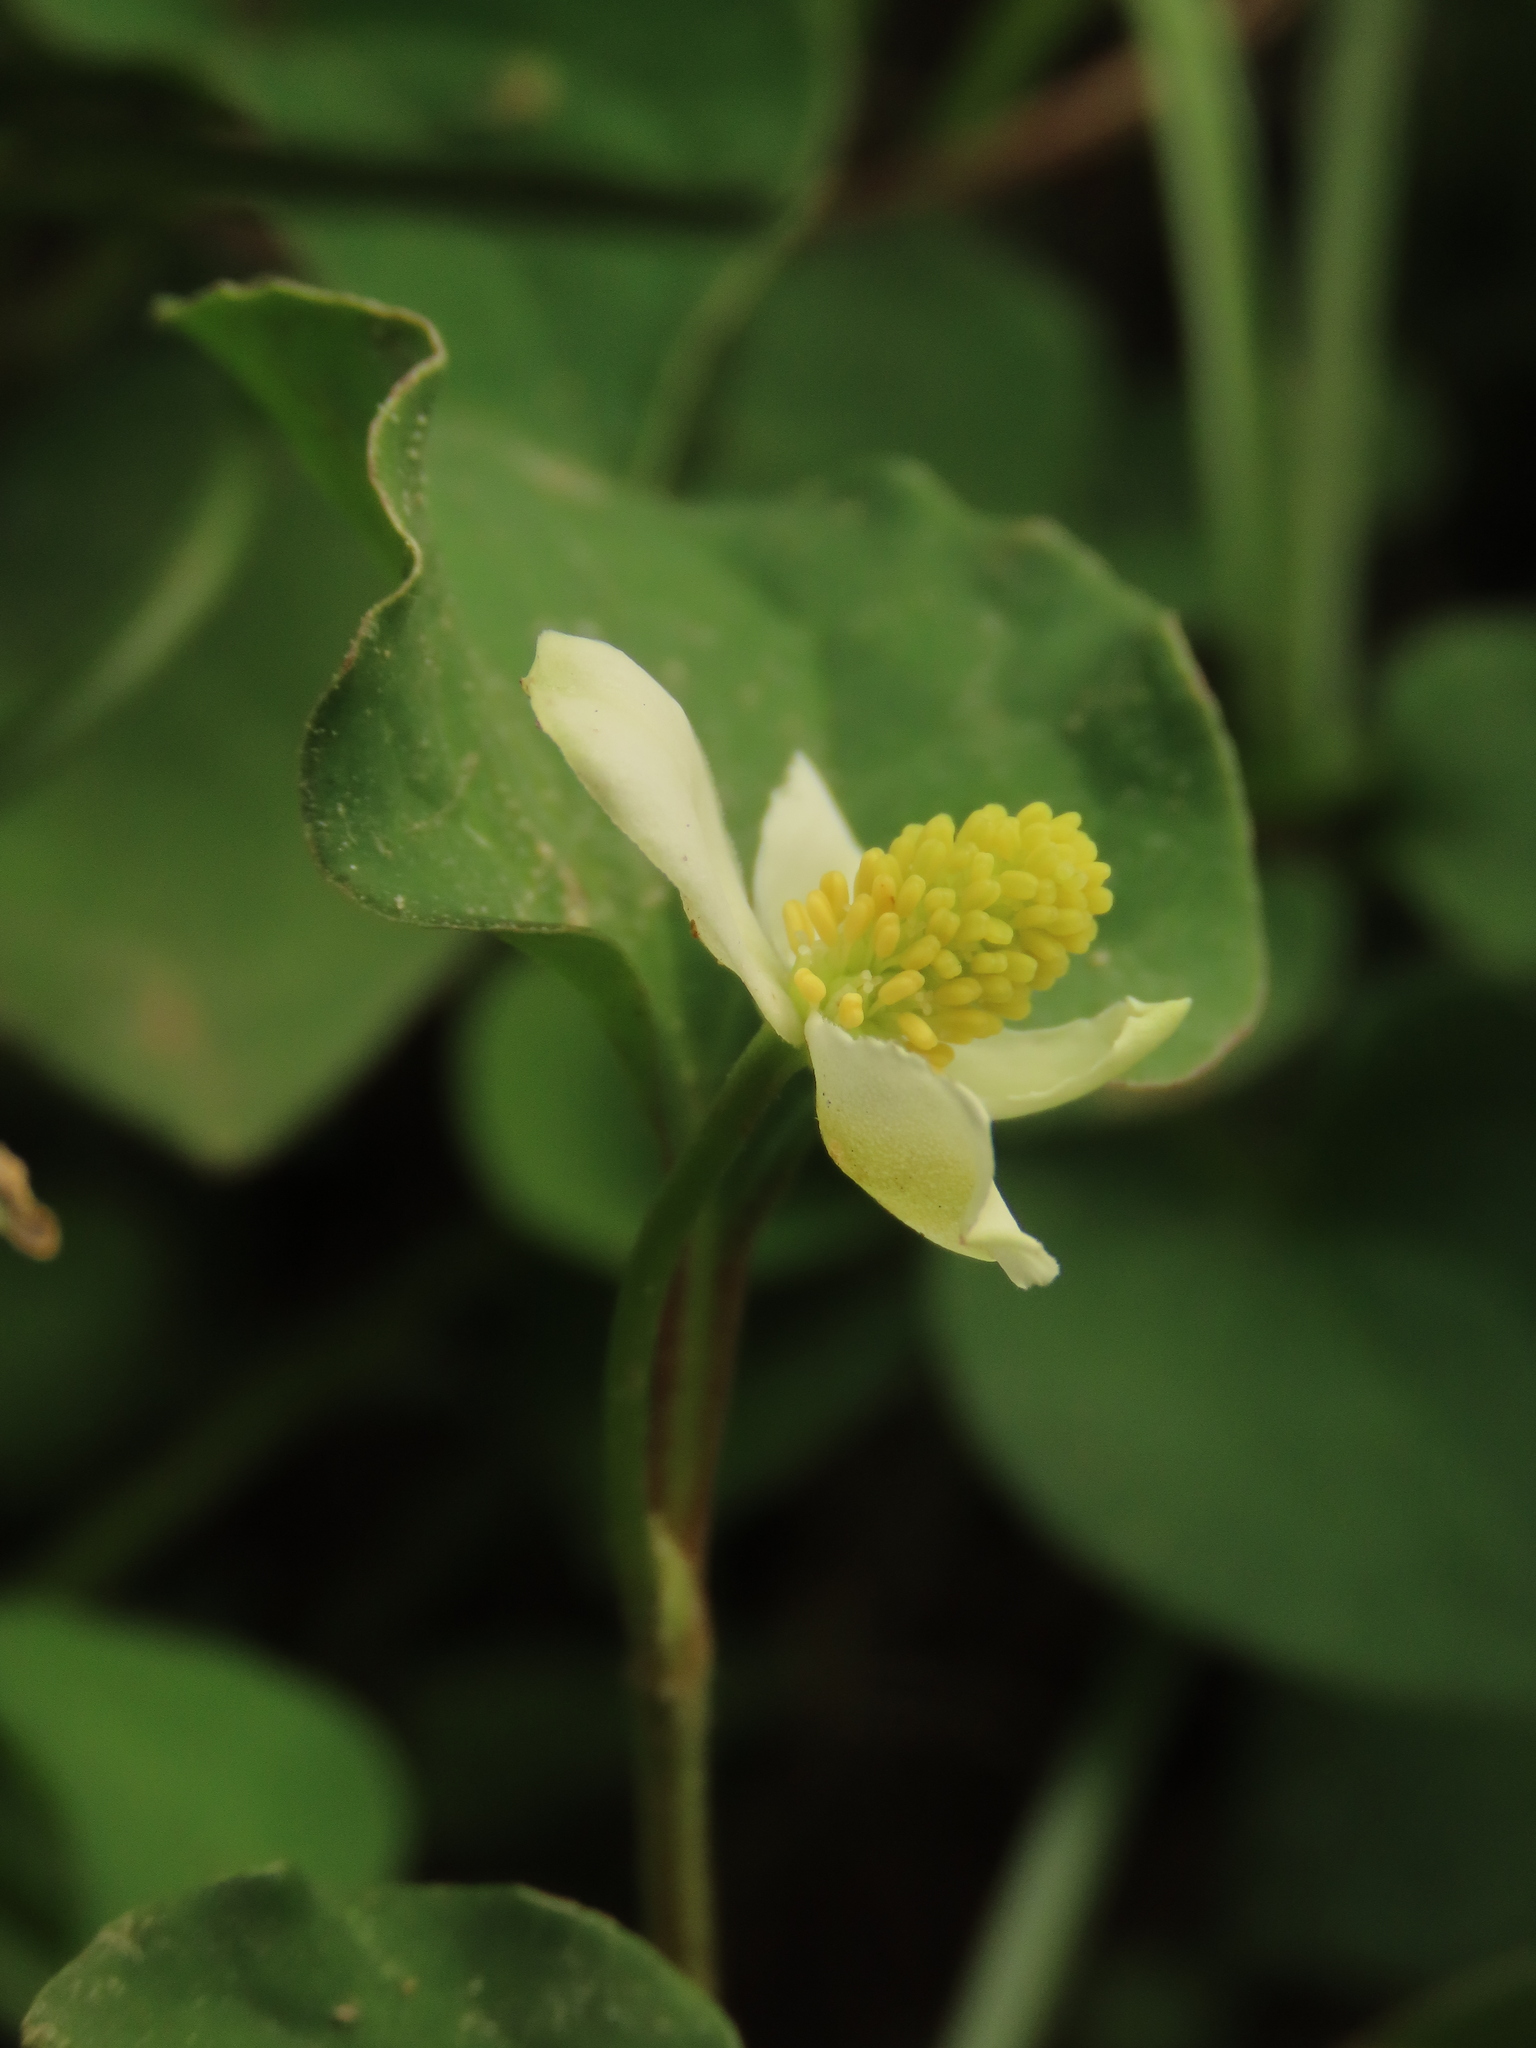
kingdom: Plantae
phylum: Tracheophyta
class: Magnoliopsida
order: Piperales
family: Saururaceae
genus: Houttuynia
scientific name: Houttuynia cordata
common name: Chameleon
